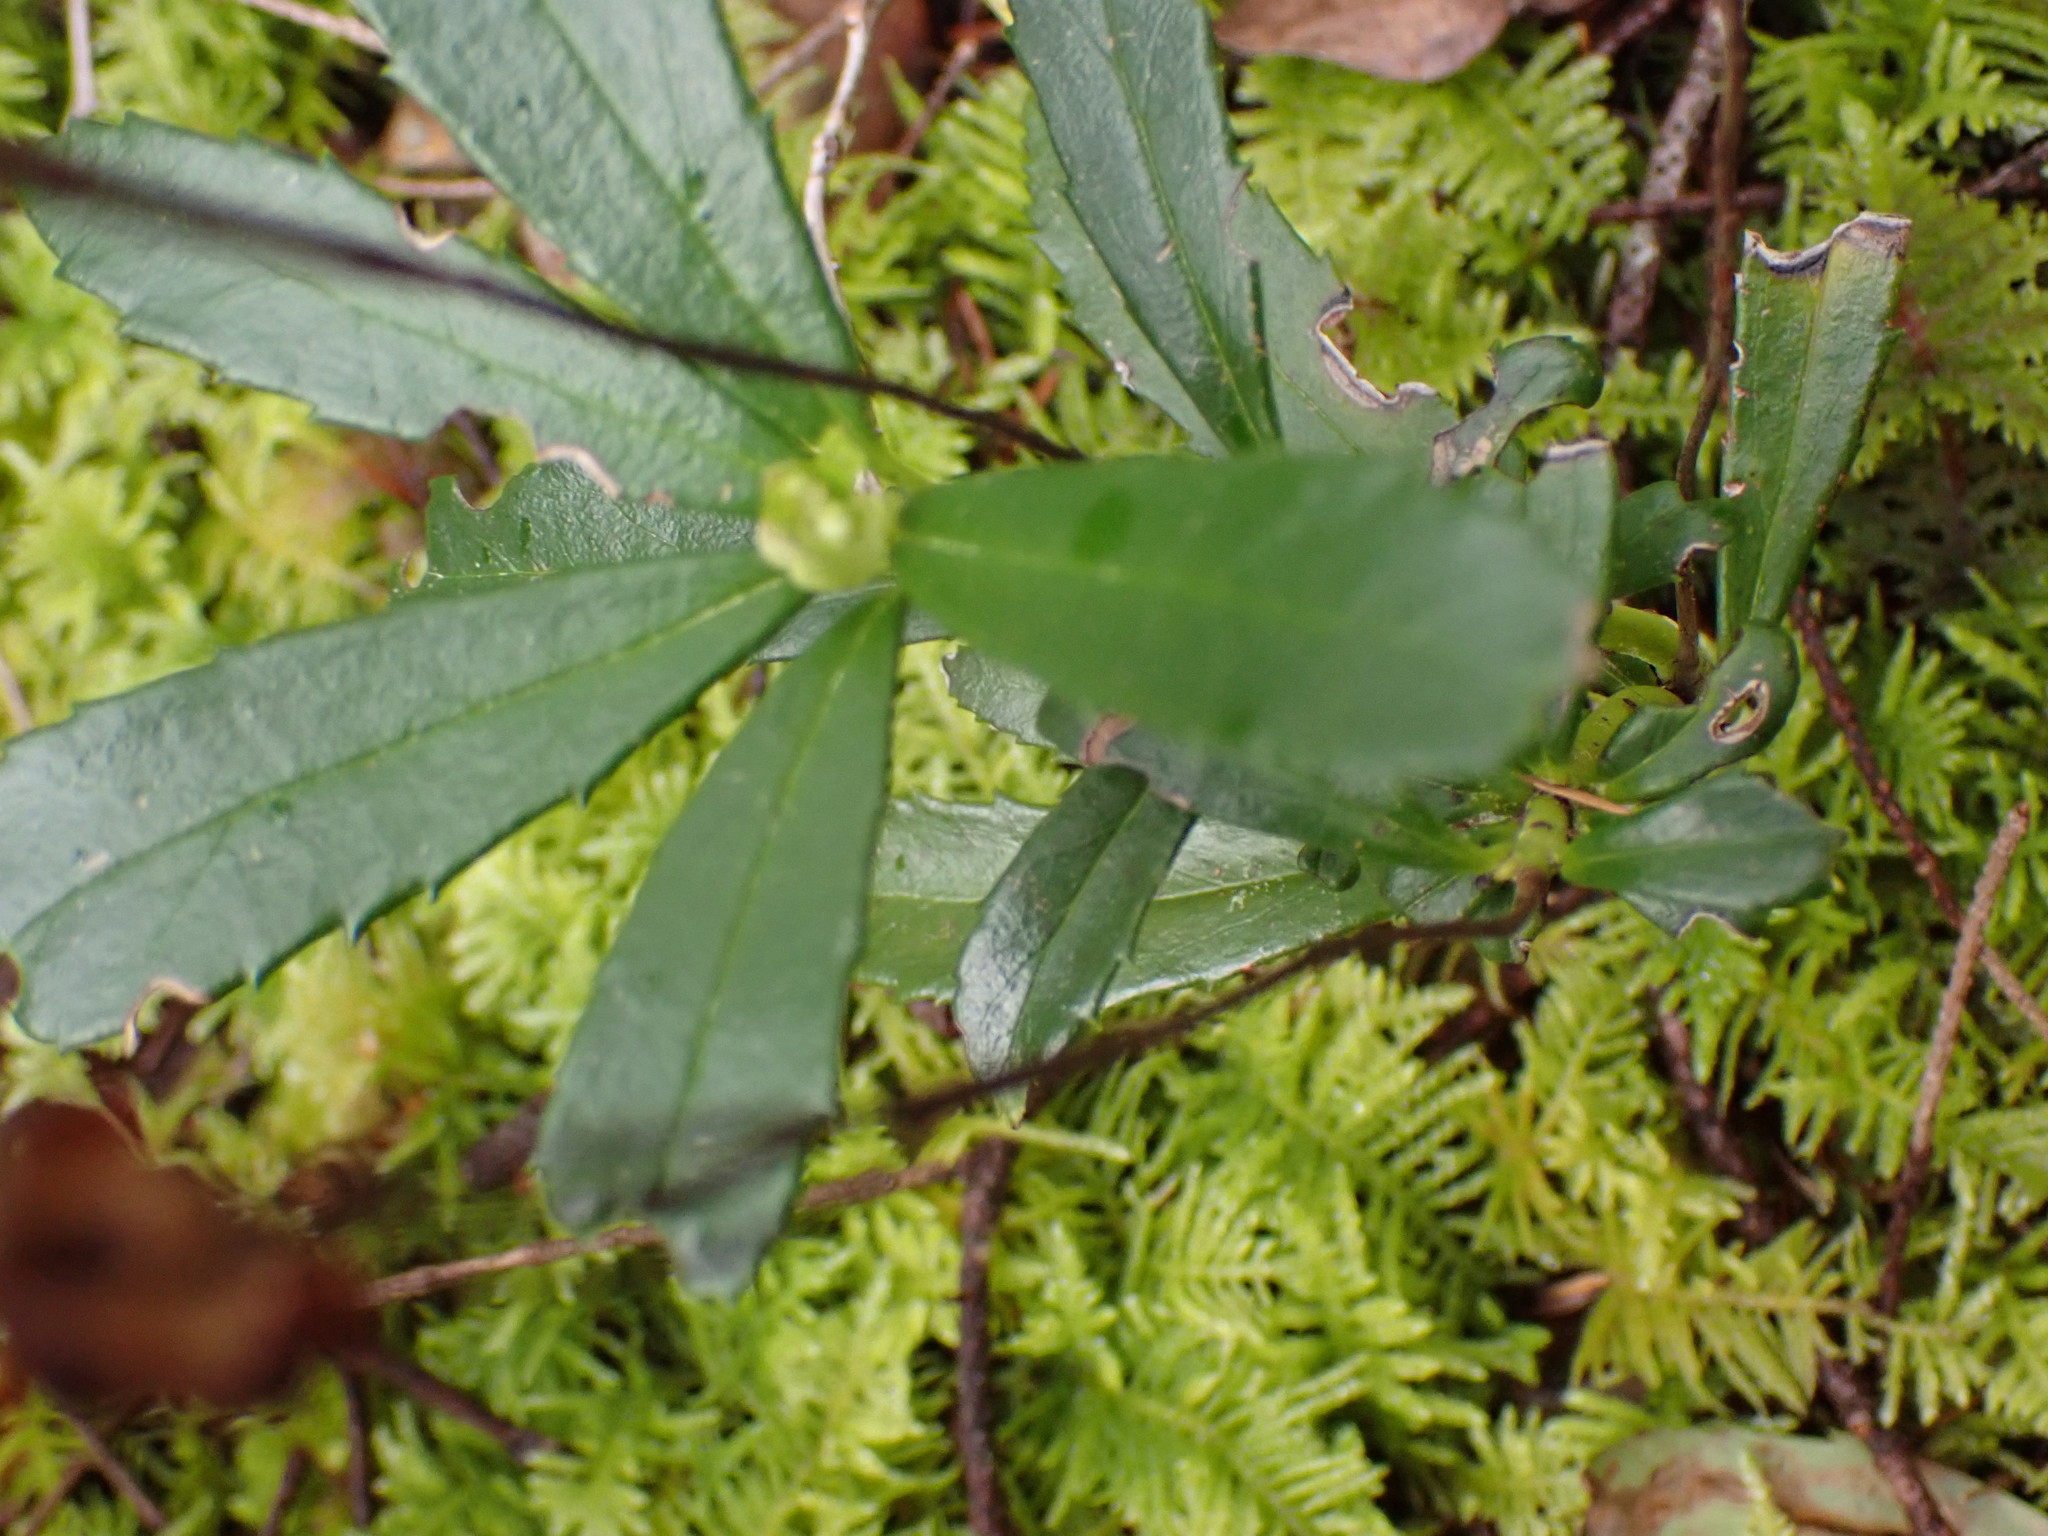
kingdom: Plantae
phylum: Tracheophyta
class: Magnoliopsida
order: Ericales
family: Ericaceae
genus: Chimaphila
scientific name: Chimaphila umbellata
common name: Pipsissewa
